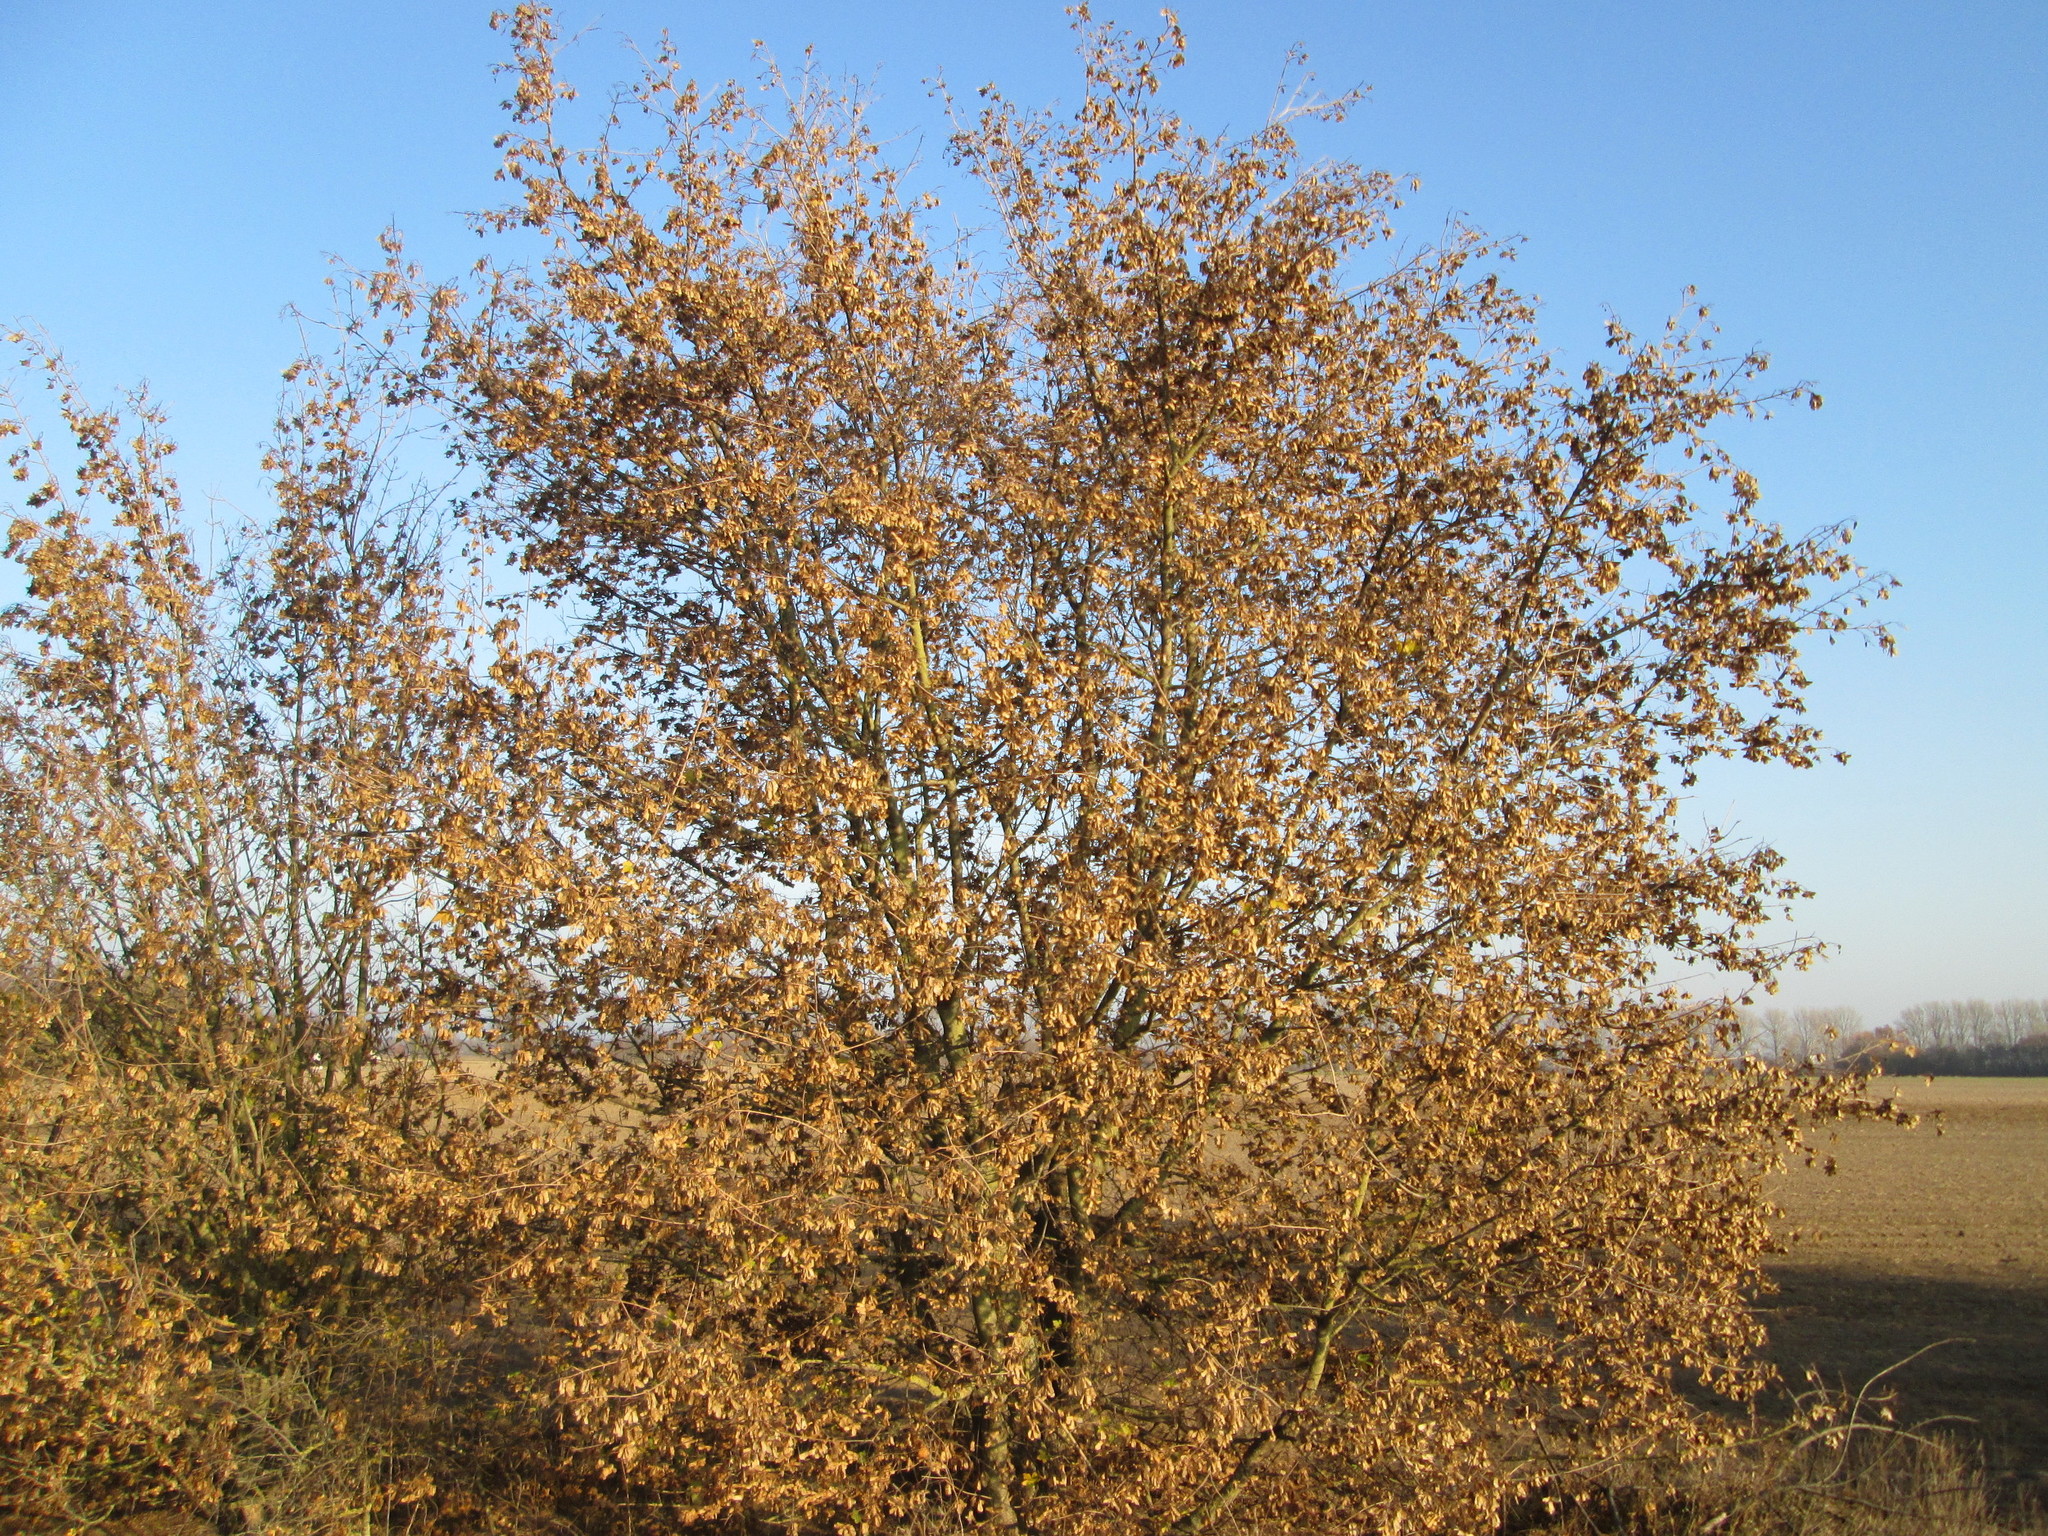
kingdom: Plantae
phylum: Tracheophyta
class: Magnoliopsida
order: Sapindales
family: Sapindaceae
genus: Acer
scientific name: Acer campestre
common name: Field maple
